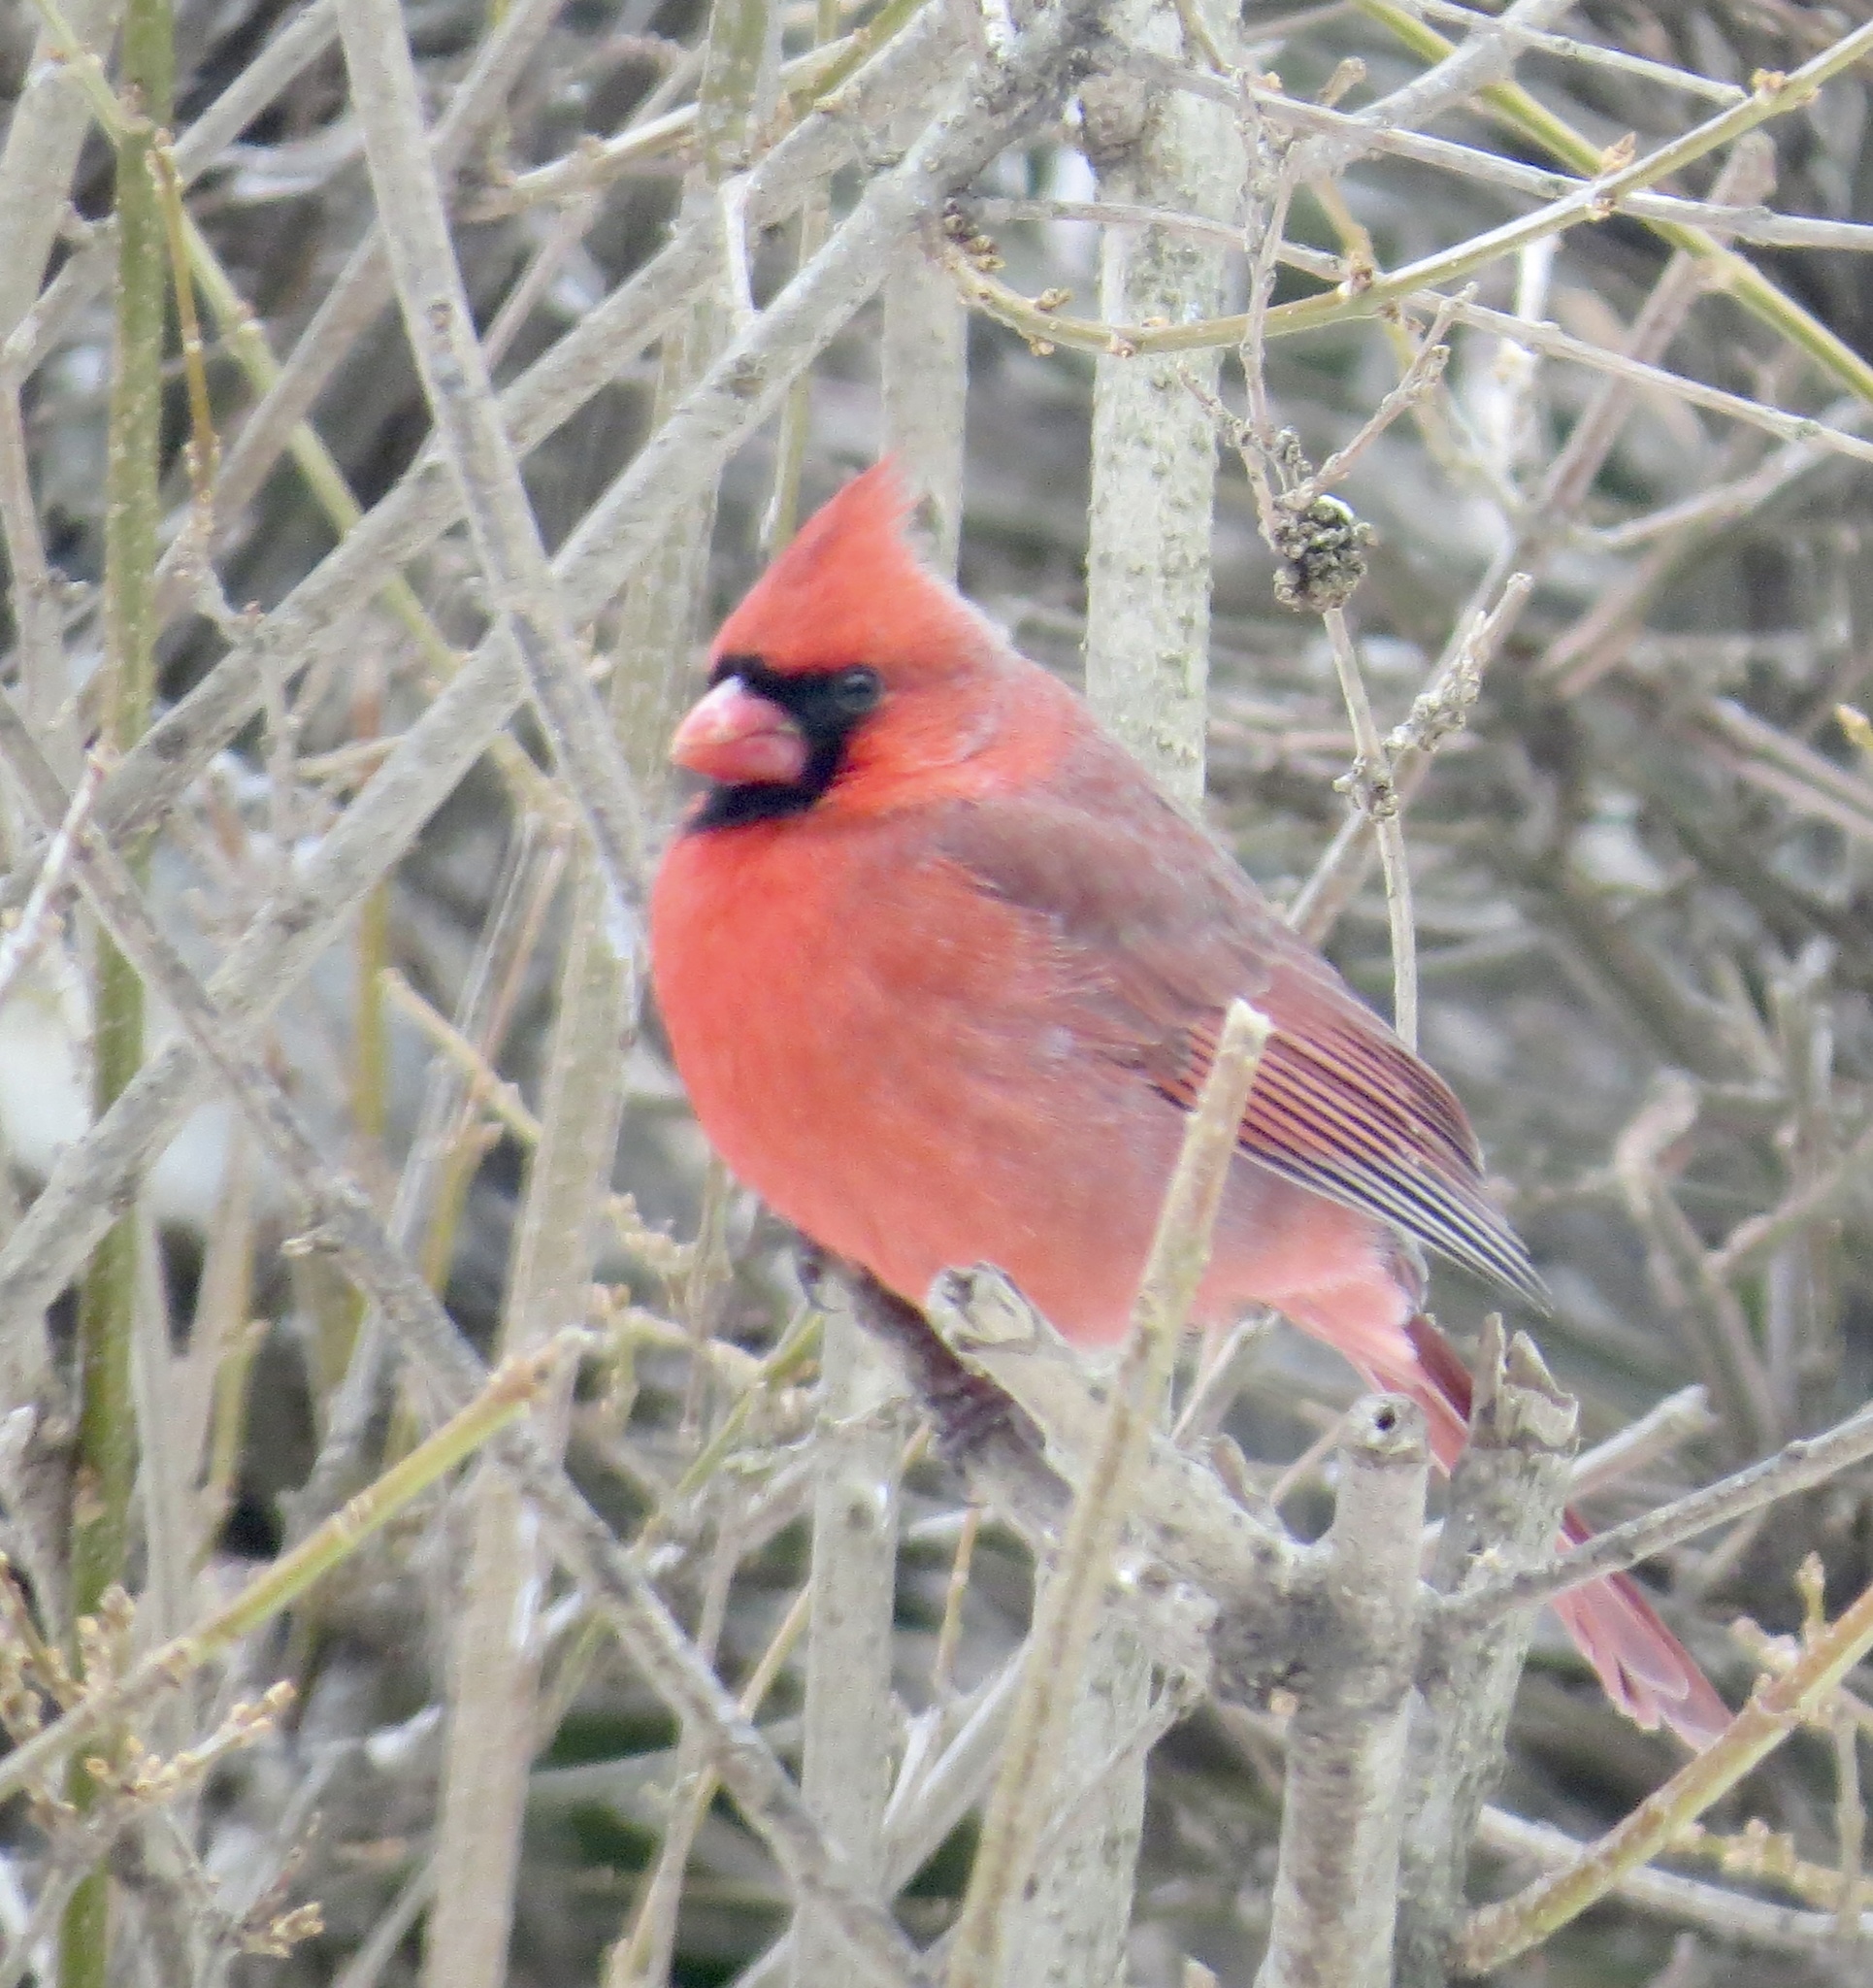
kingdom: Animalia
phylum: Chordata
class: Aves
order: Passeriformes
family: Cardinalidae
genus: Cardinalis
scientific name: Cardinalis cardinalis
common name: Northern cardinal
